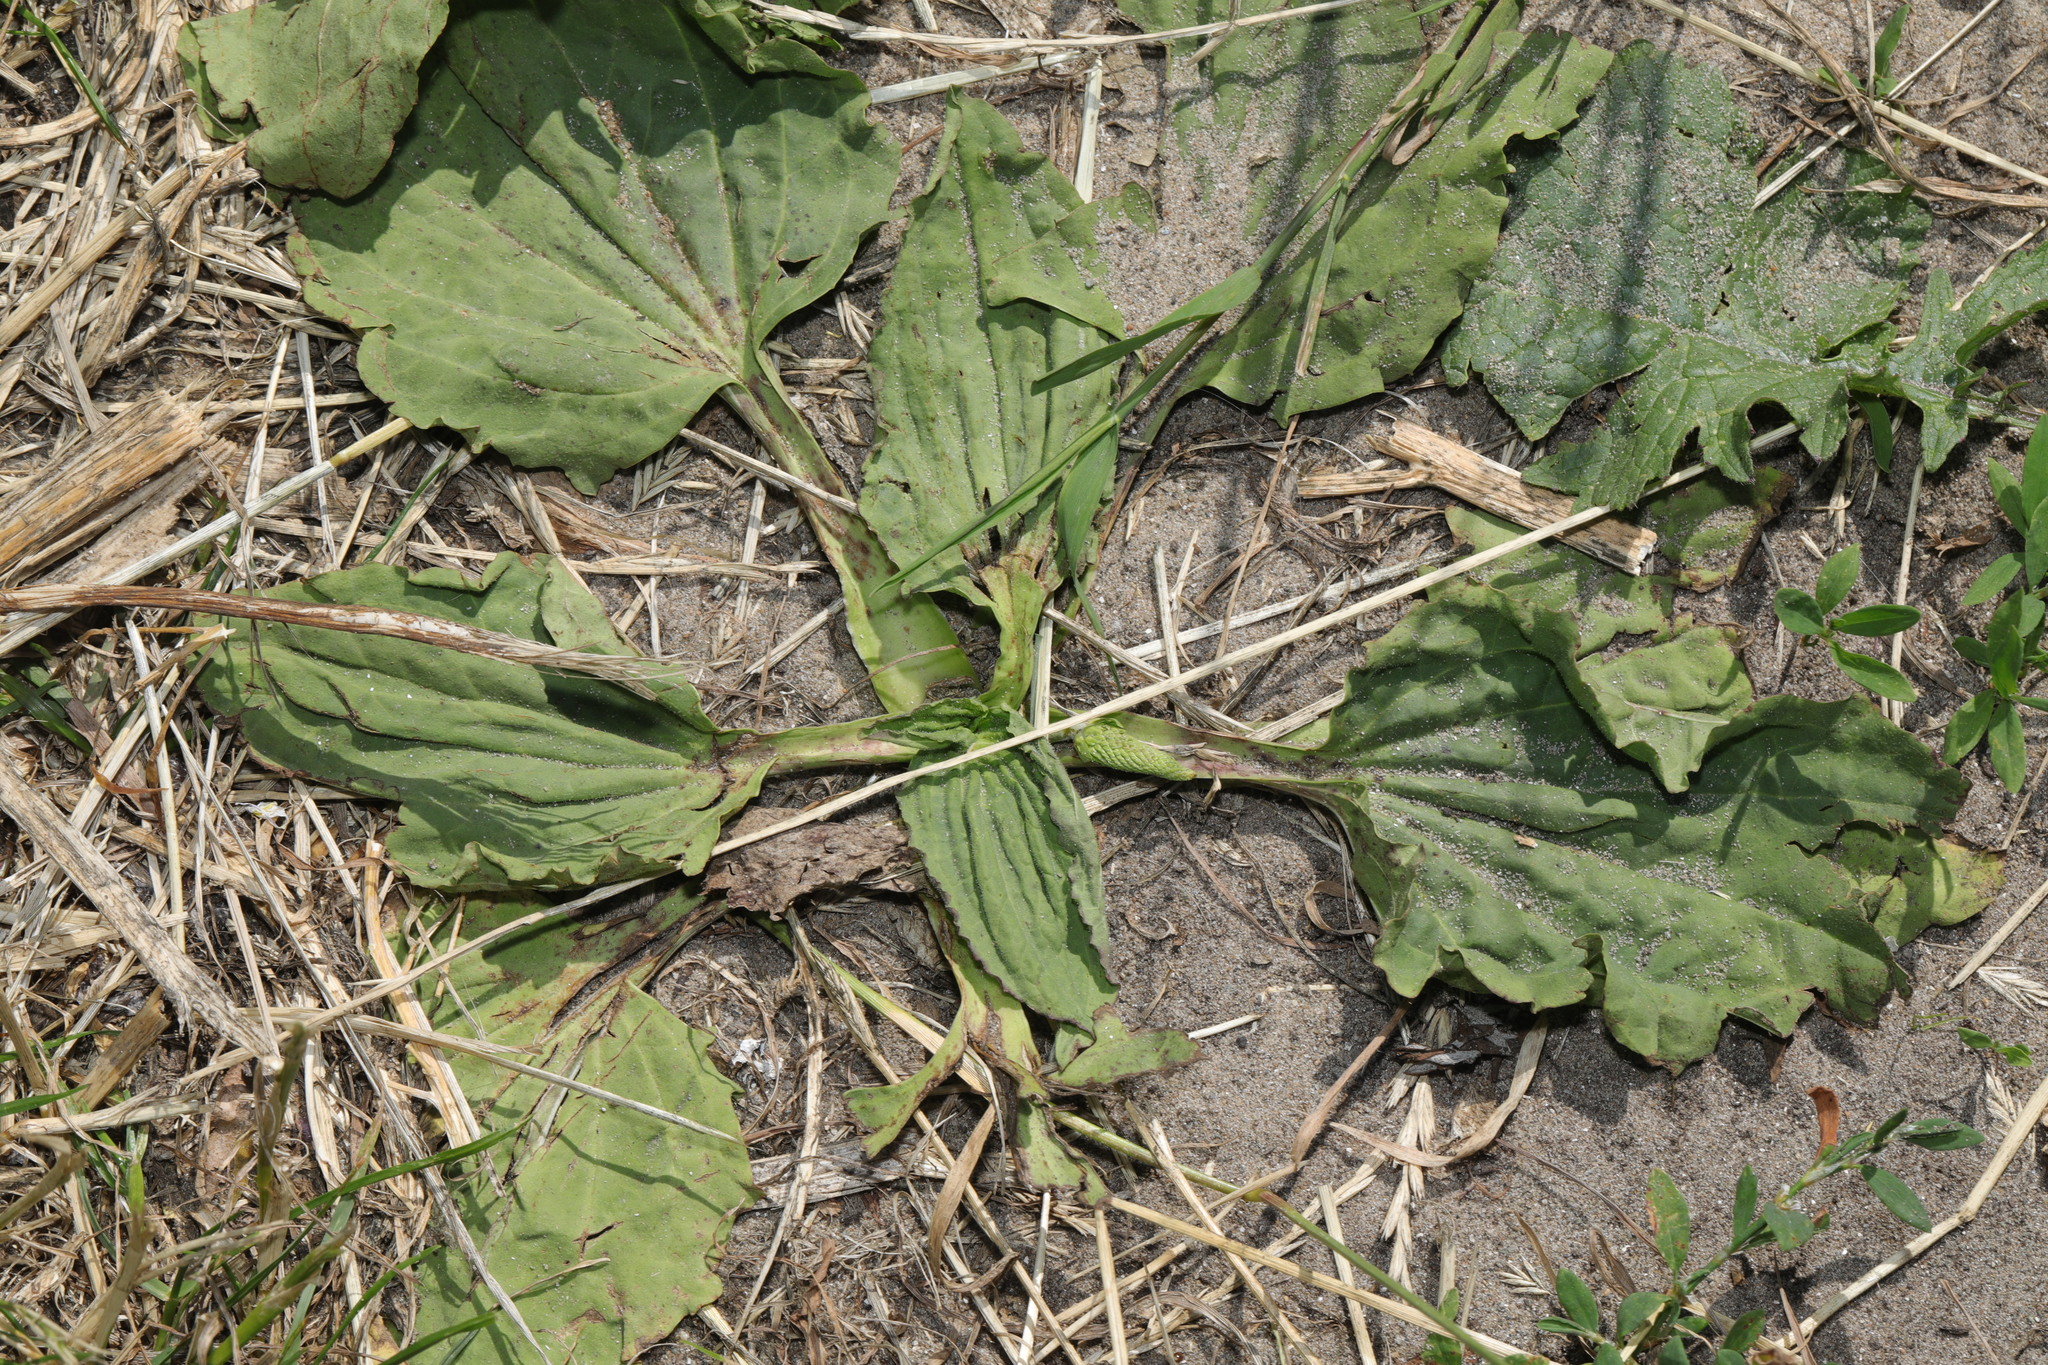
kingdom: Plantae
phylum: Tracheophyta
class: Magnoliopsida
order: Lamiales
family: Plantaginaceae
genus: Plantago
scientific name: Plantago major
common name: Common plantain
